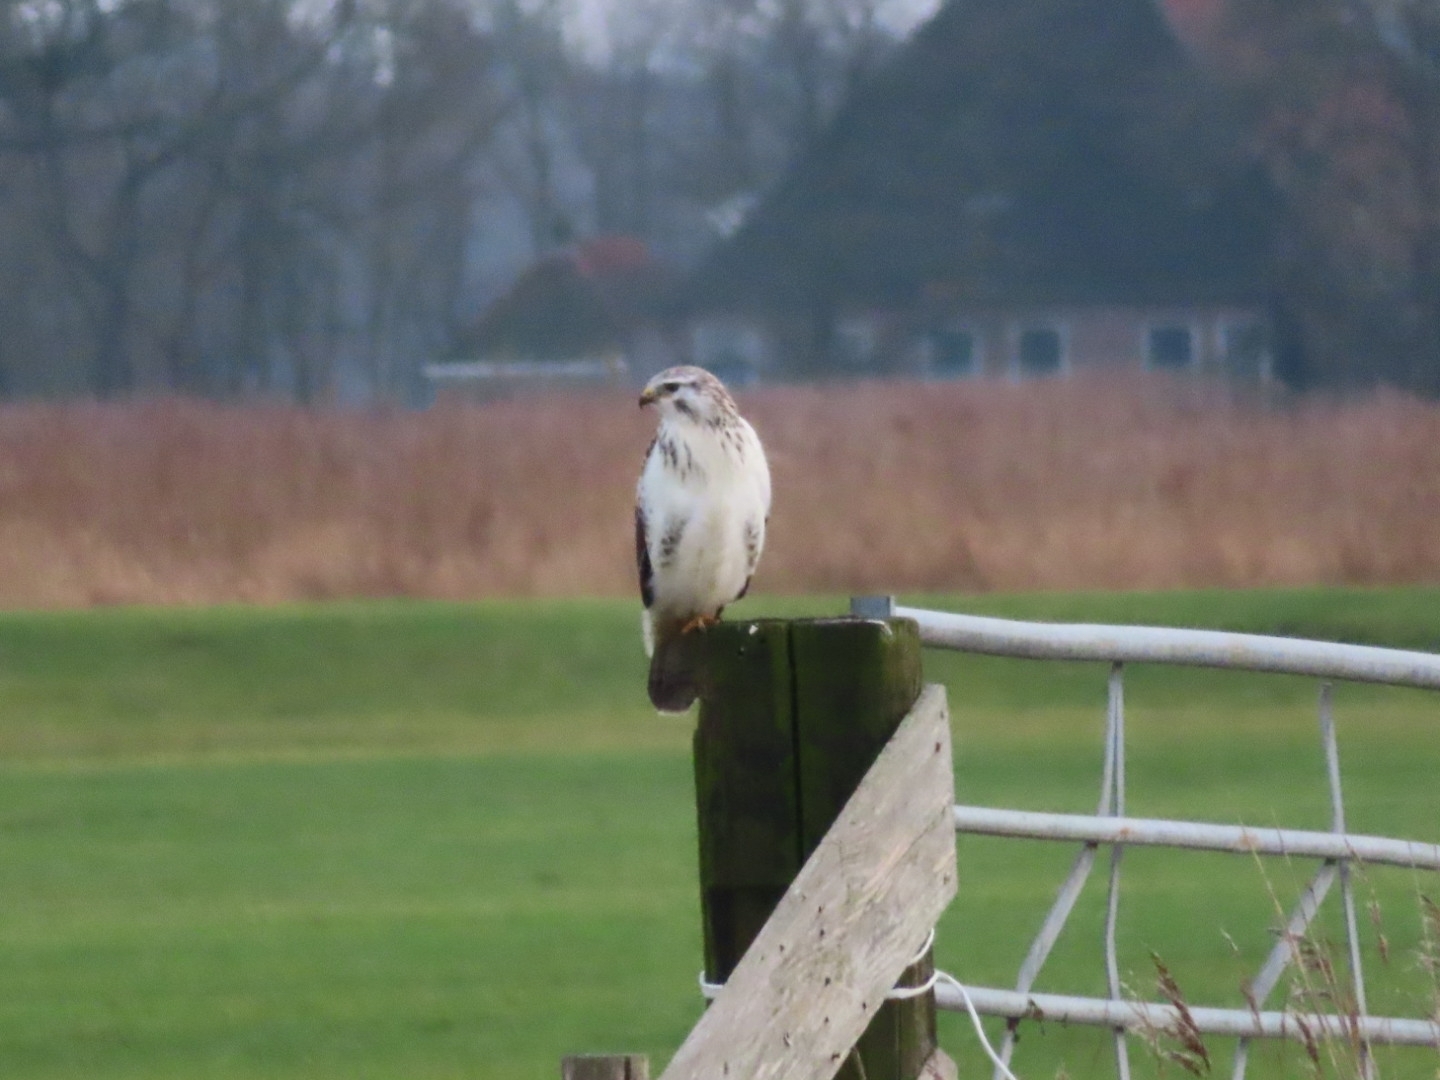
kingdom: Animalia
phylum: Chordata
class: Aves
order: Accipitriformes
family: Accipitridae
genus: Buteo
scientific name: Buteo buteo
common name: Common buzzard
